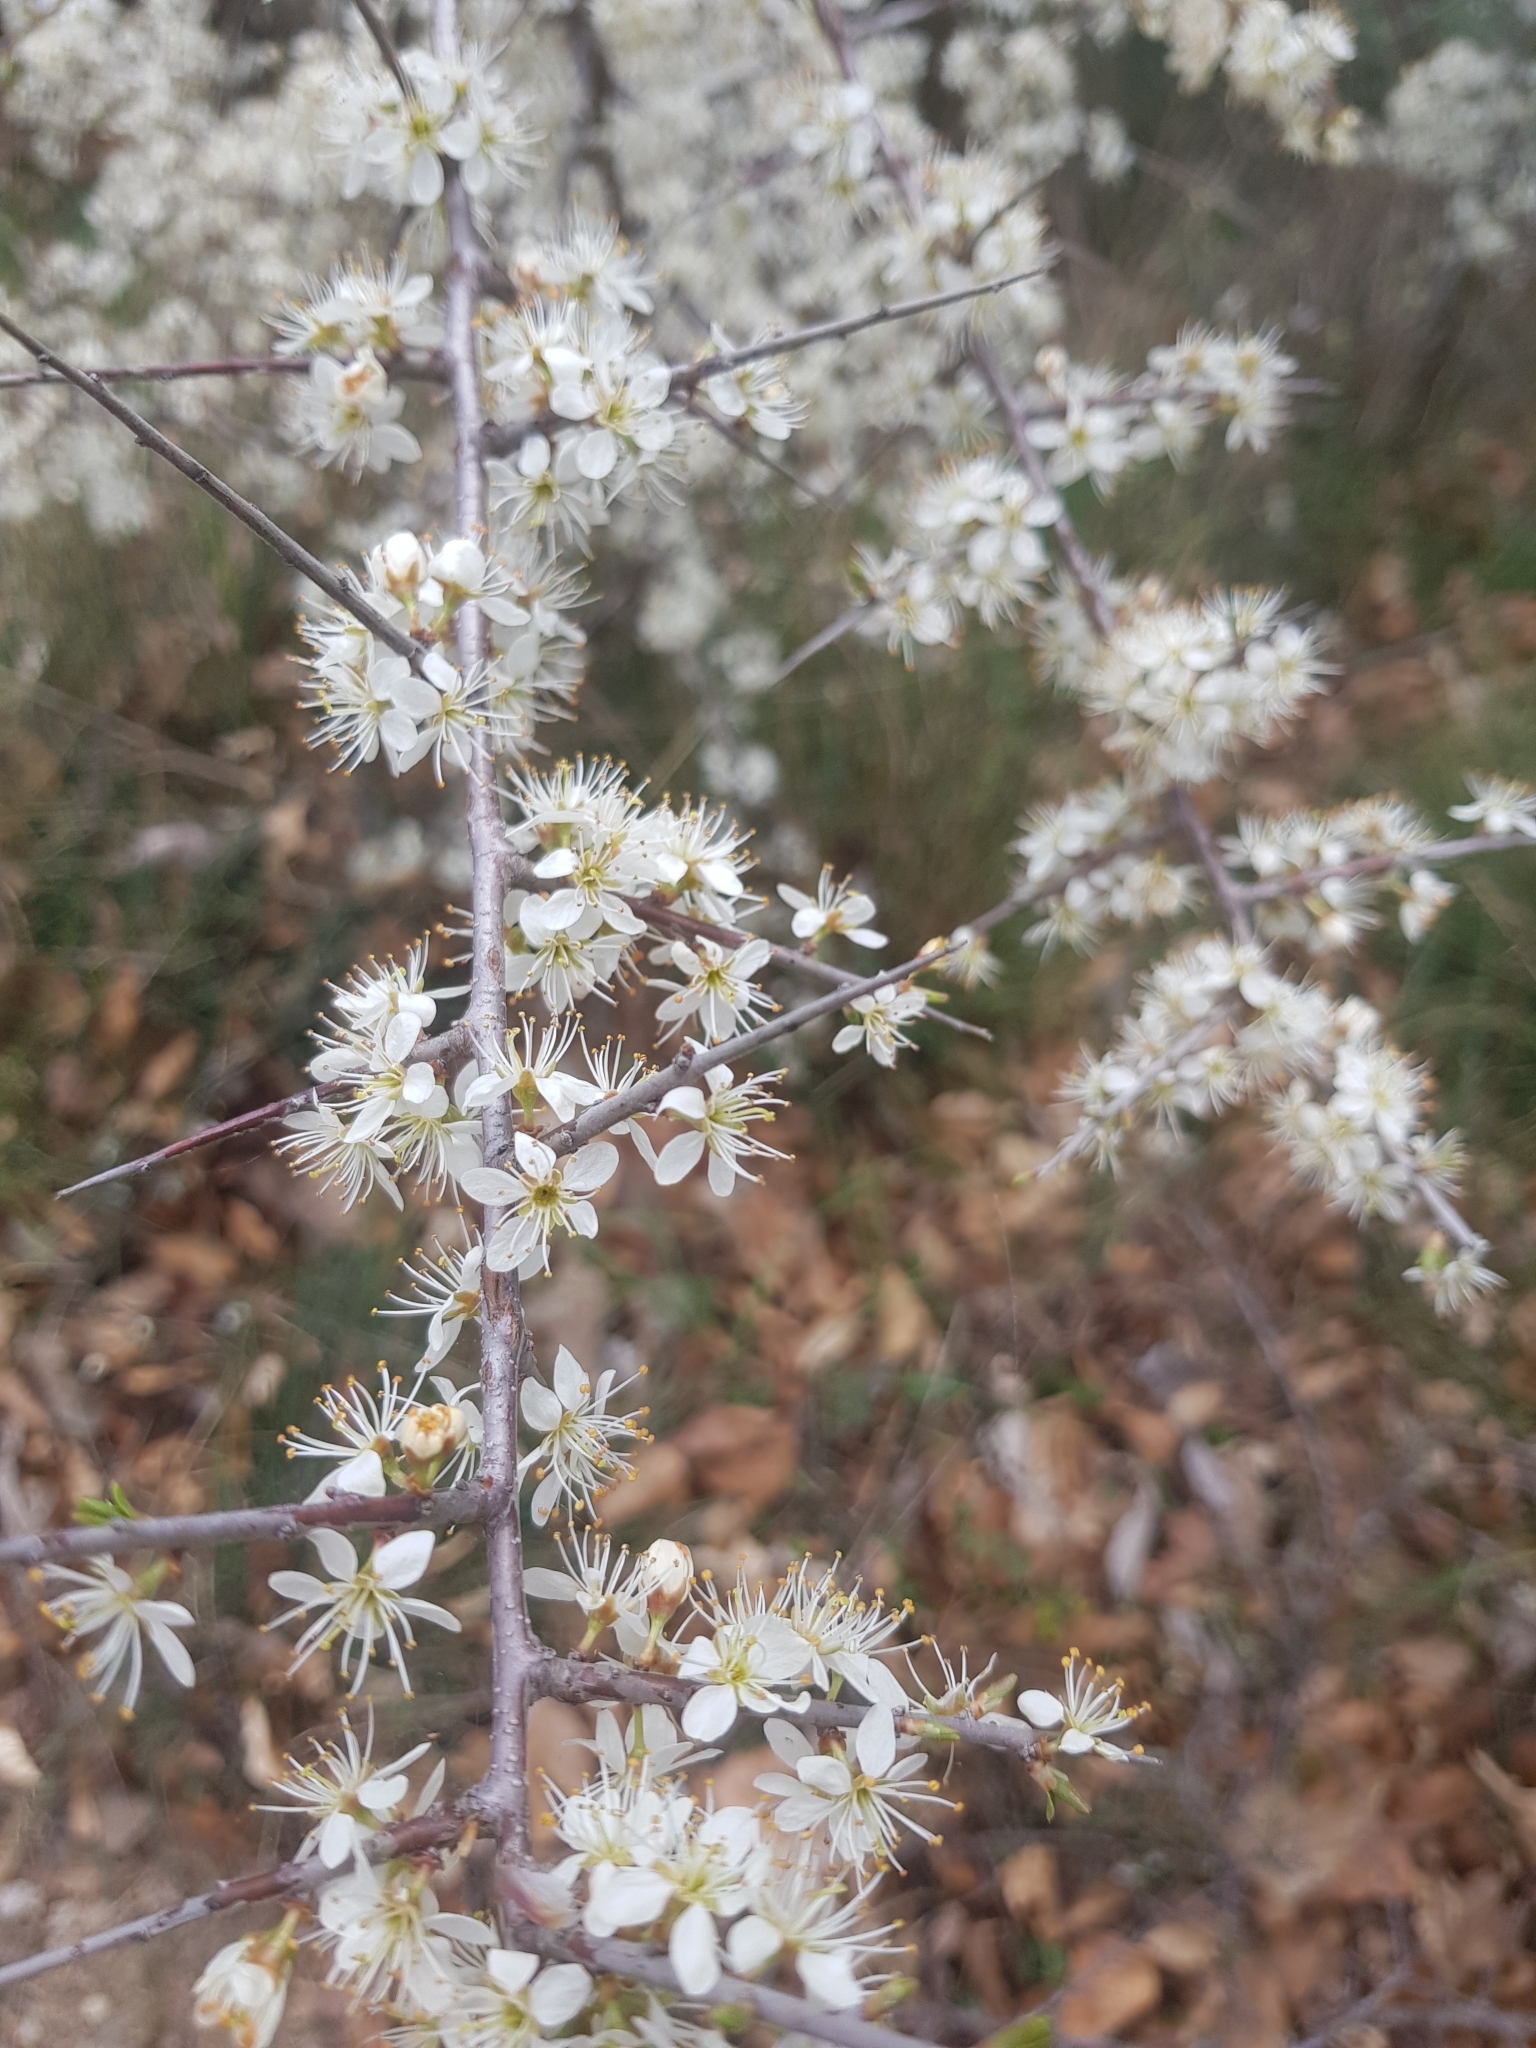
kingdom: Plantae
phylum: Tracheophyta
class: Magnoliopsida
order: Rosales
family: Rosaceae
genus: Prunus
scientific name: Prunus spinosa
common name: Blackthorn
